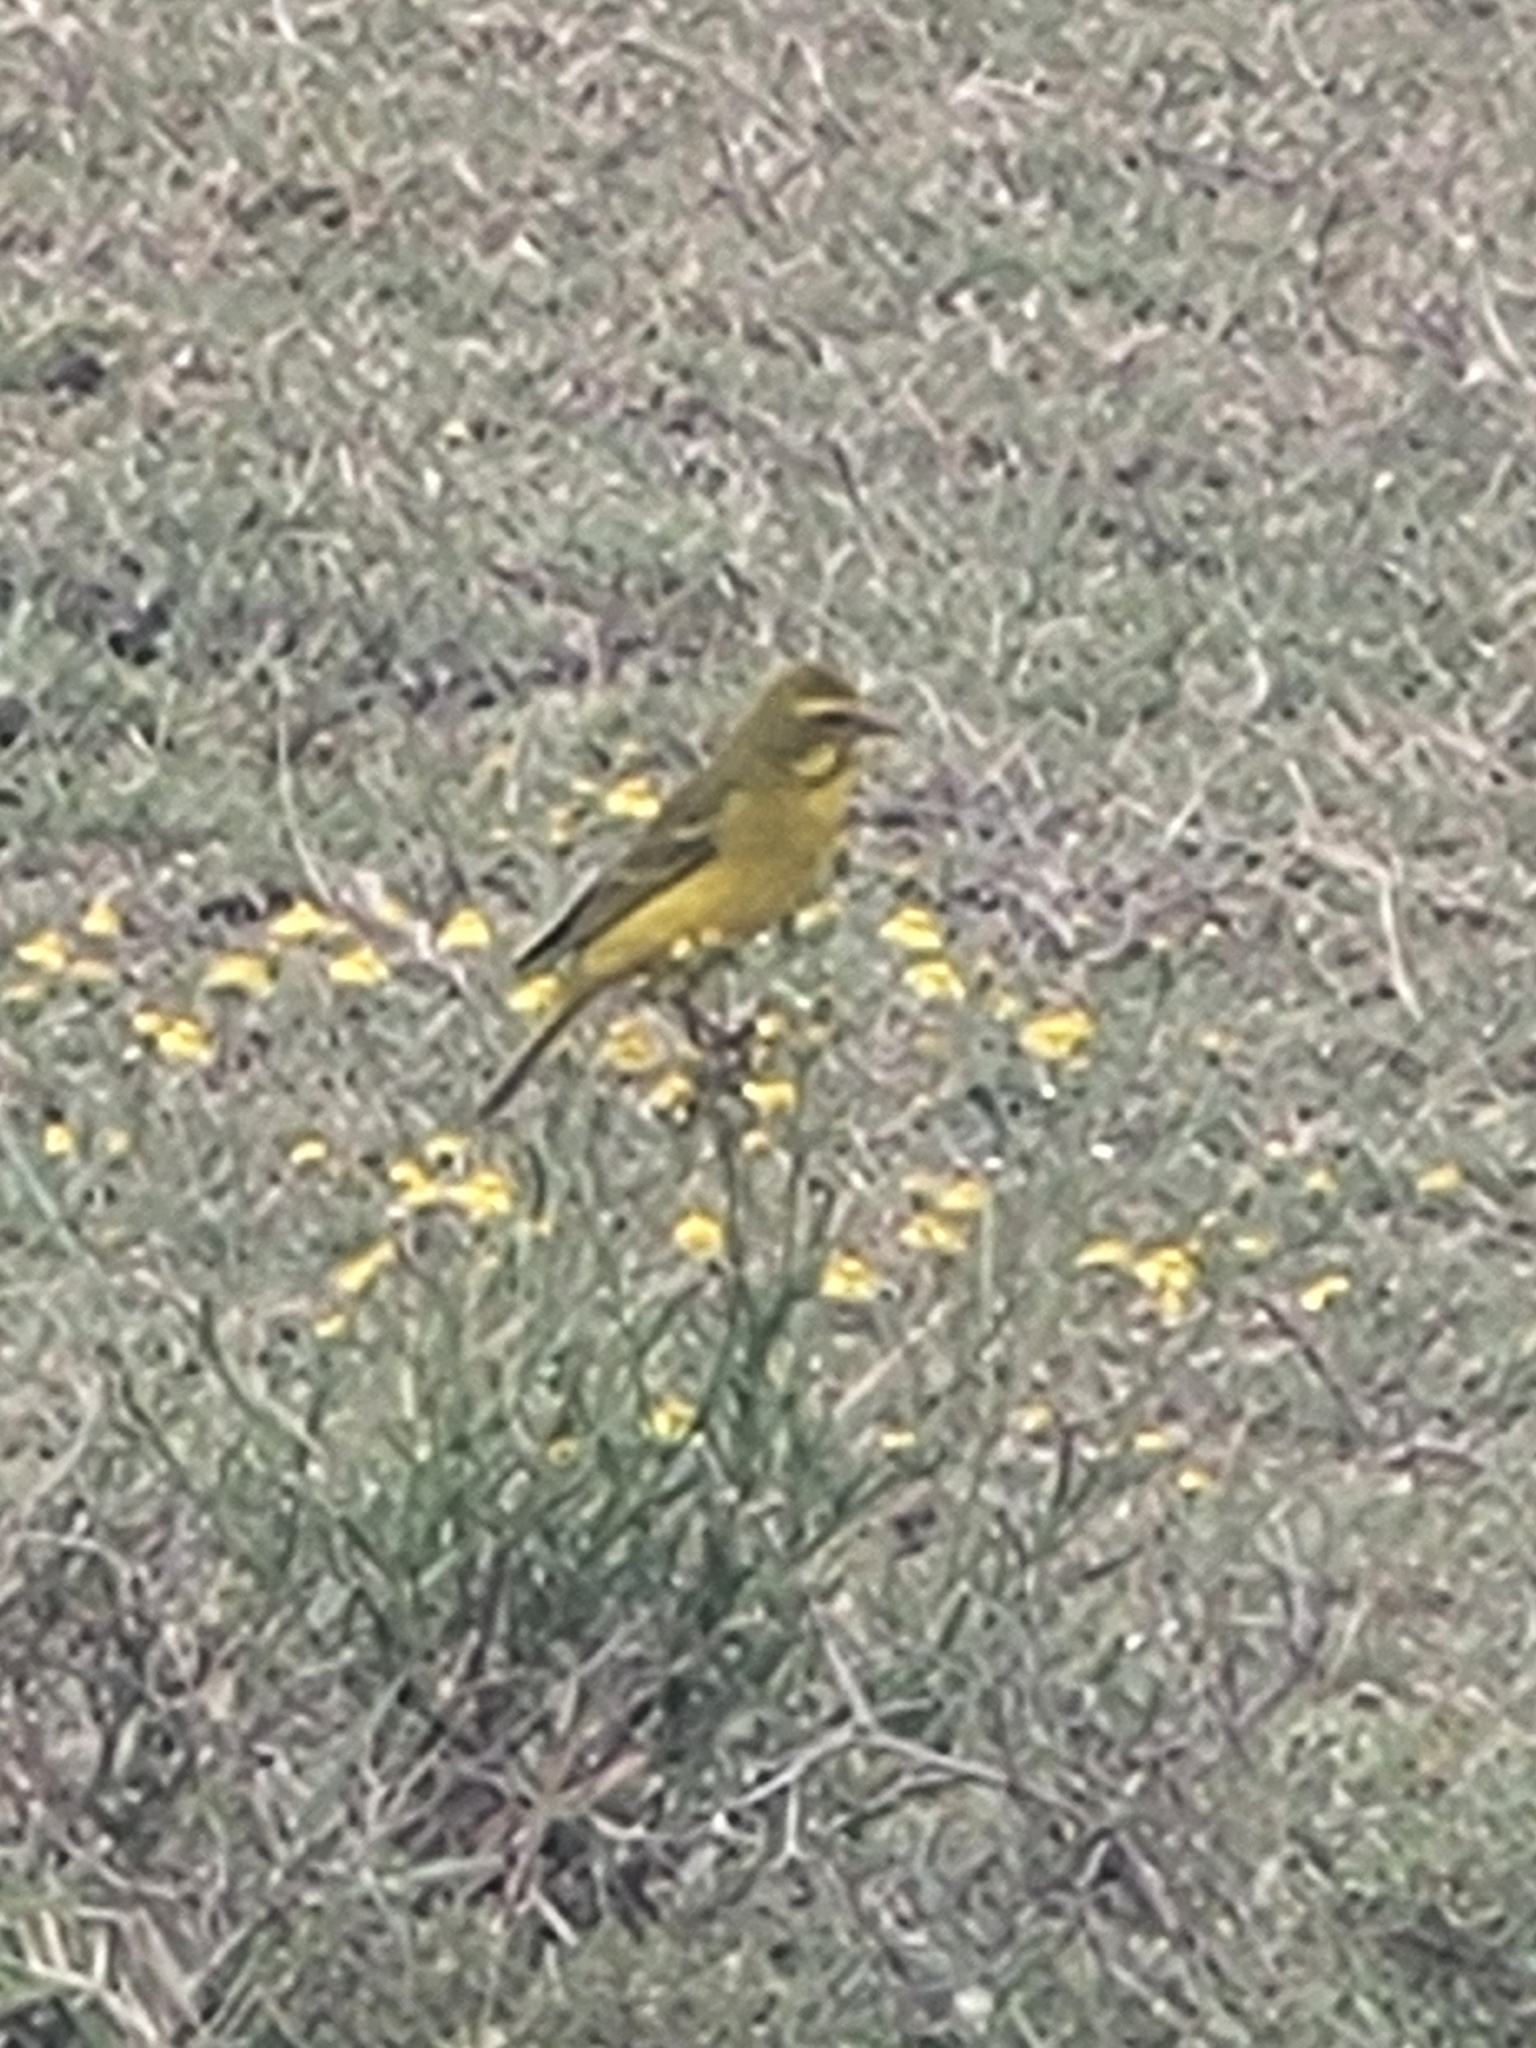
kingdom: Animalia
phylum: Chordata
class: Aves
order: Passeriformes
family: Fringillidae
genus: Crithagra
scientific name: Crithagra sulphurata
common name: Brimstone canary
